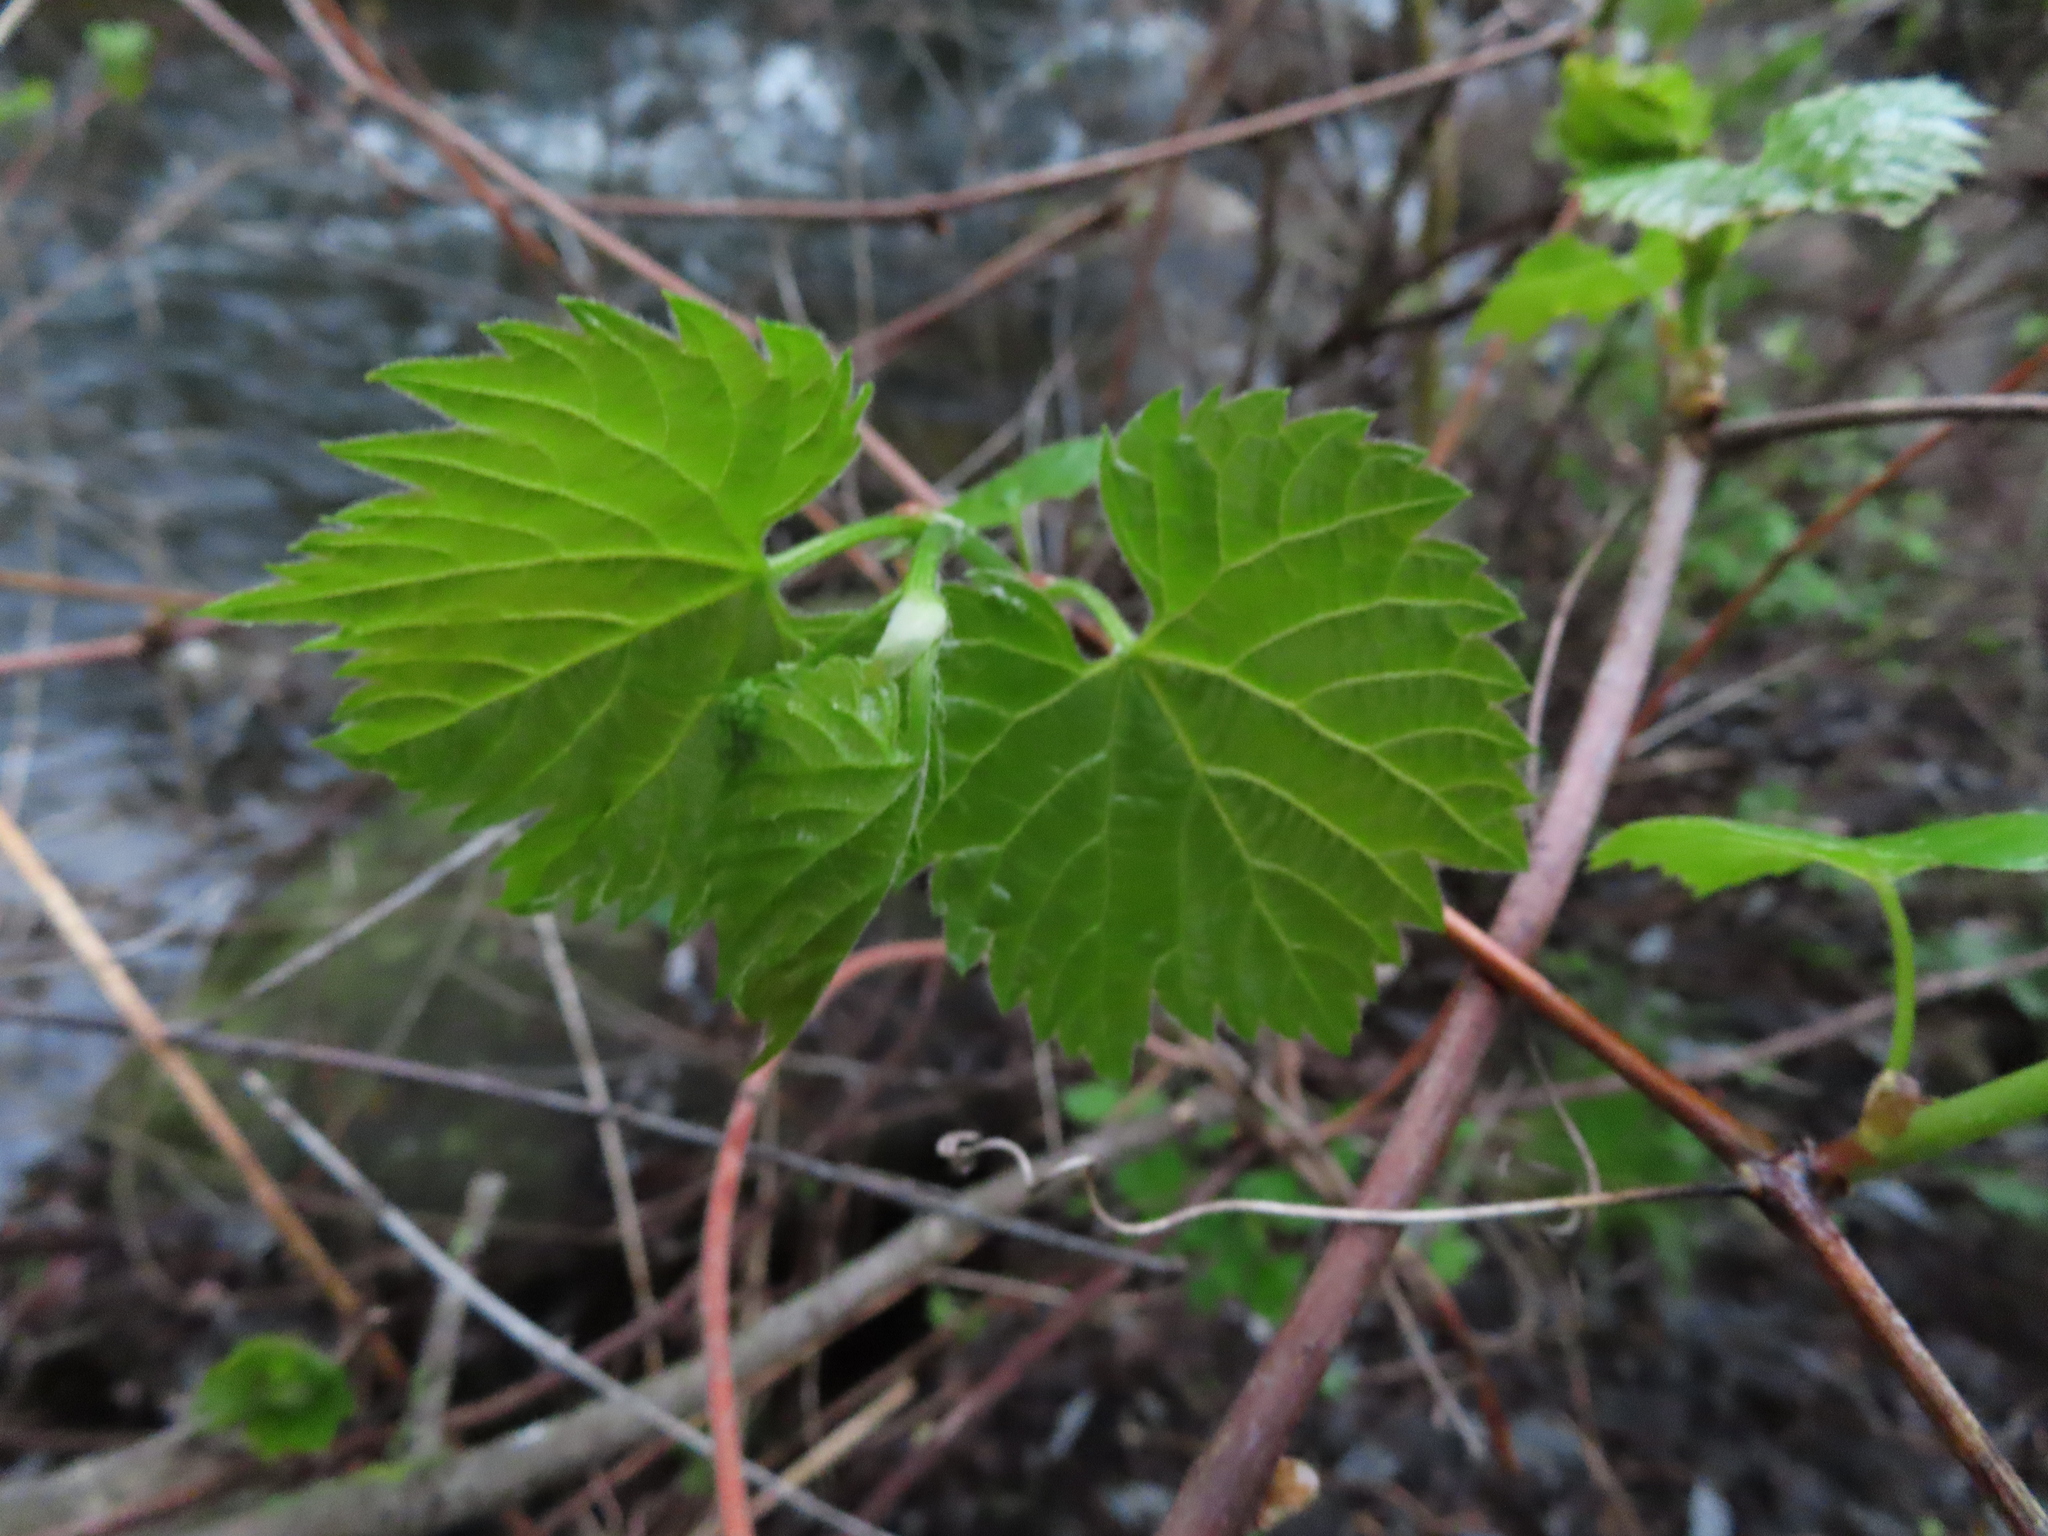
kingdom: Plantae
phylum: Tracheophyta
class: Magnoliopsida
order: Vitales
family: Vitaceae
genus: Vitis
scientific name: Vitis riparia
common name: Frost grape
